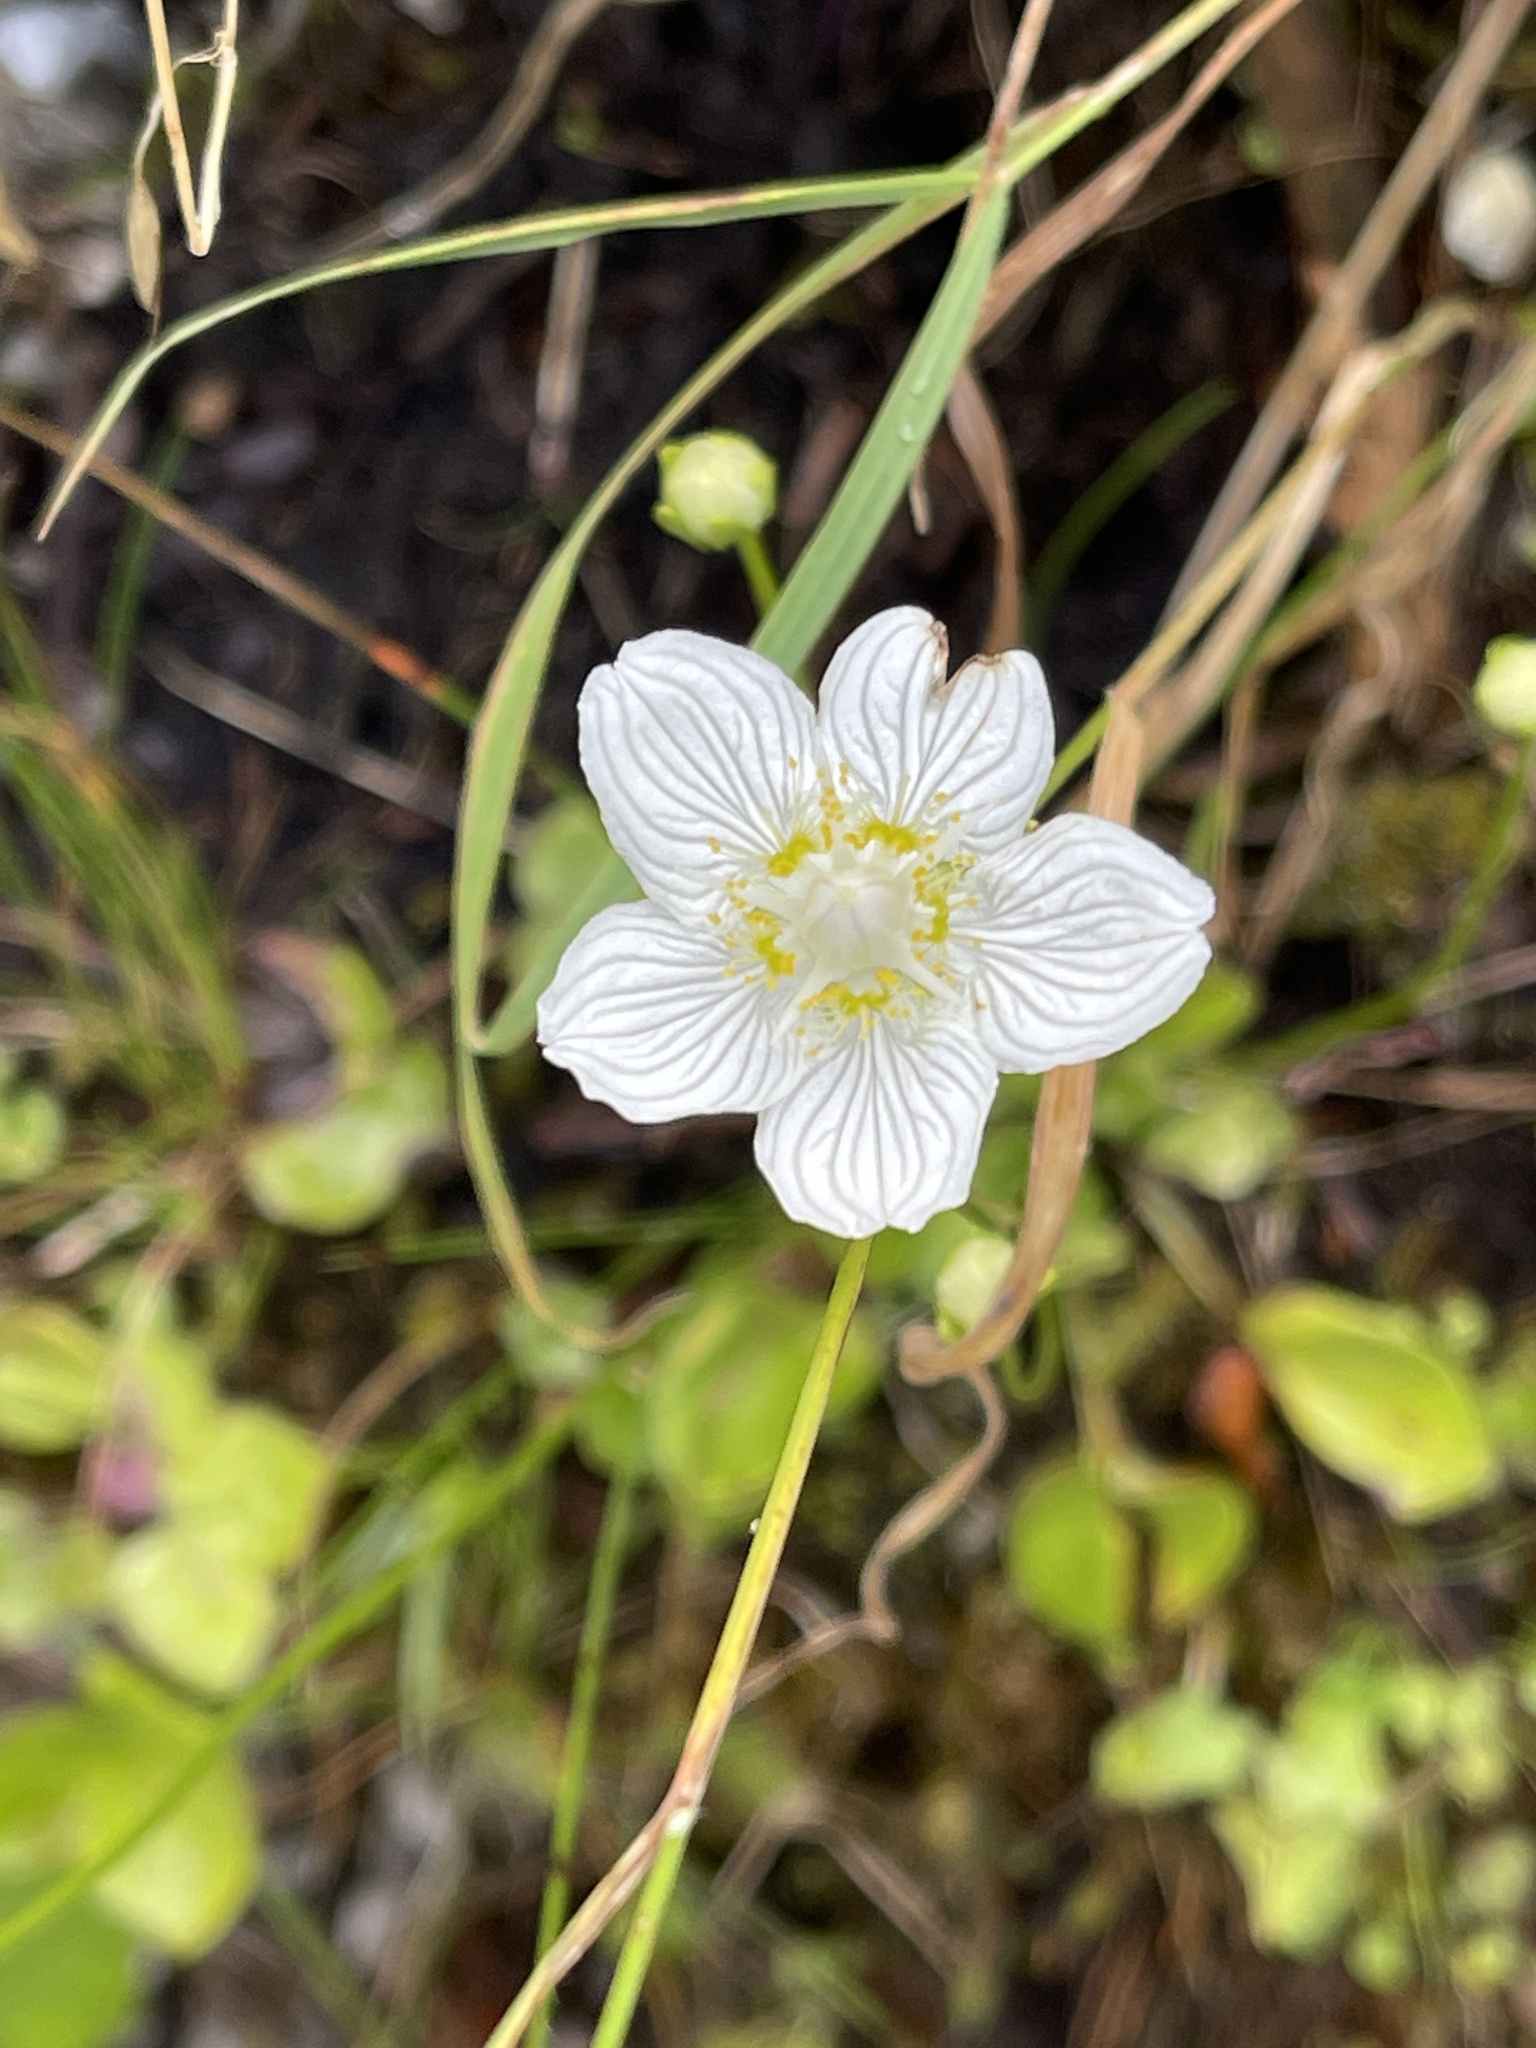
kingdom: Plantae
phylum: Tracheophyta
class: Magnoliopsida
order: Celastrales
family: Parnassiaceae
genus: Parnassia
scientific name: Parnassia palustris
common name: Grass-of-parnassus
